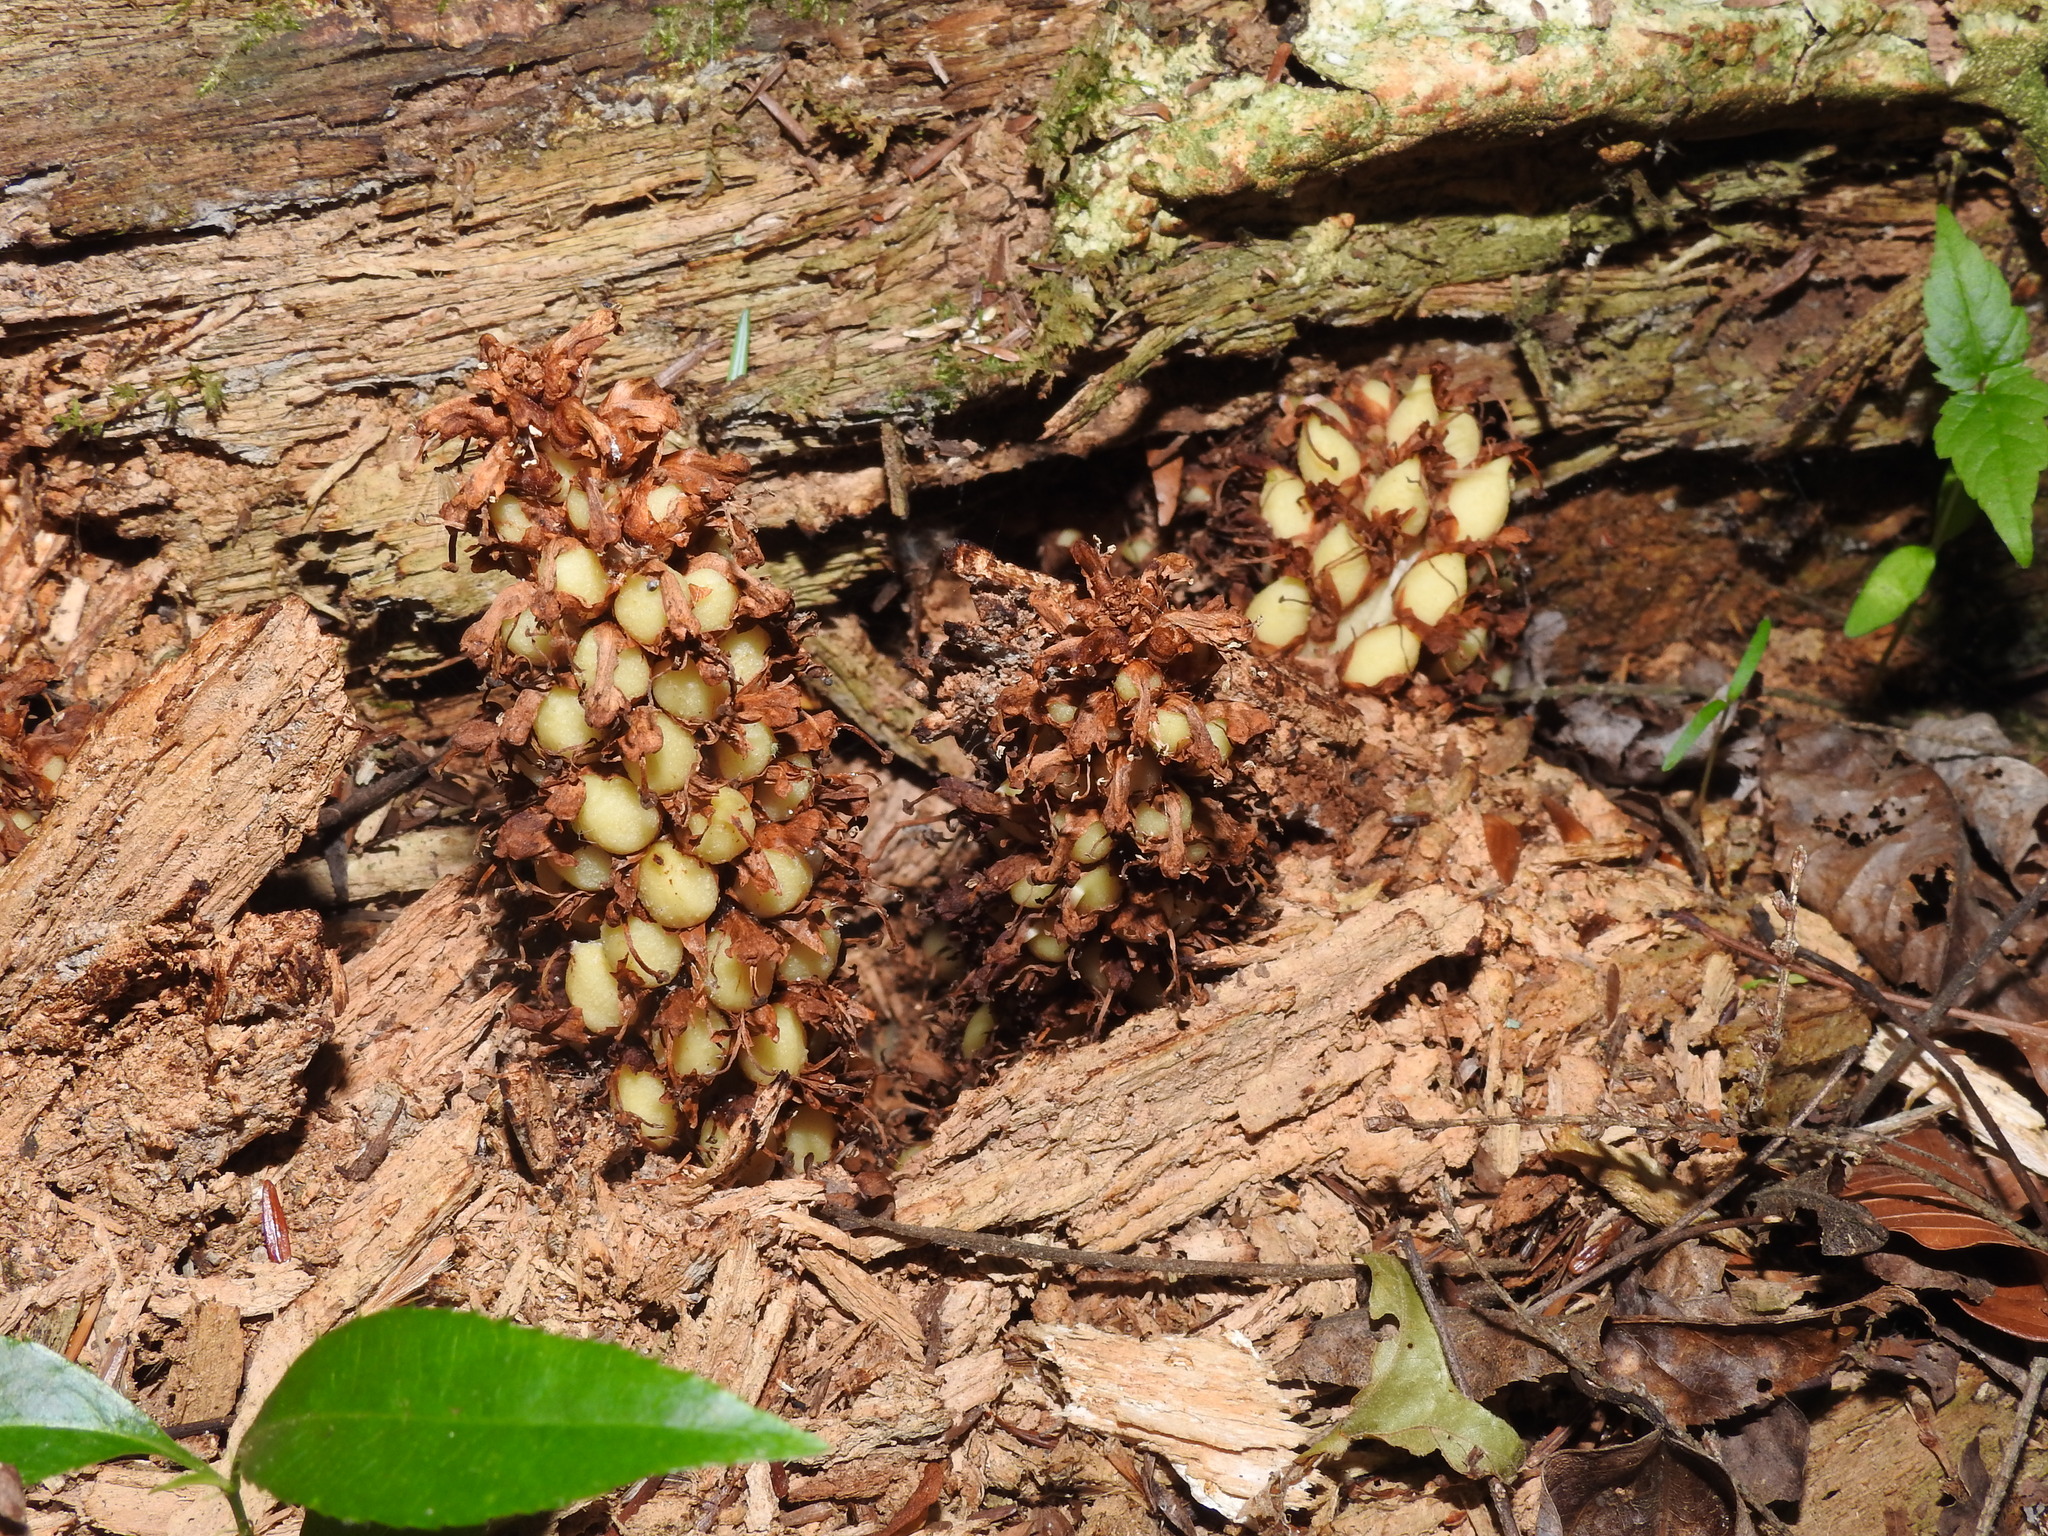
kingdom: Plantae
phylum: Tracheophyta
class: Magnoliopsida
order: Lamiales
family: Orobanchaceae
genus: Conopholis
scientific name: Conopholis americana
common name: American cancer-root
